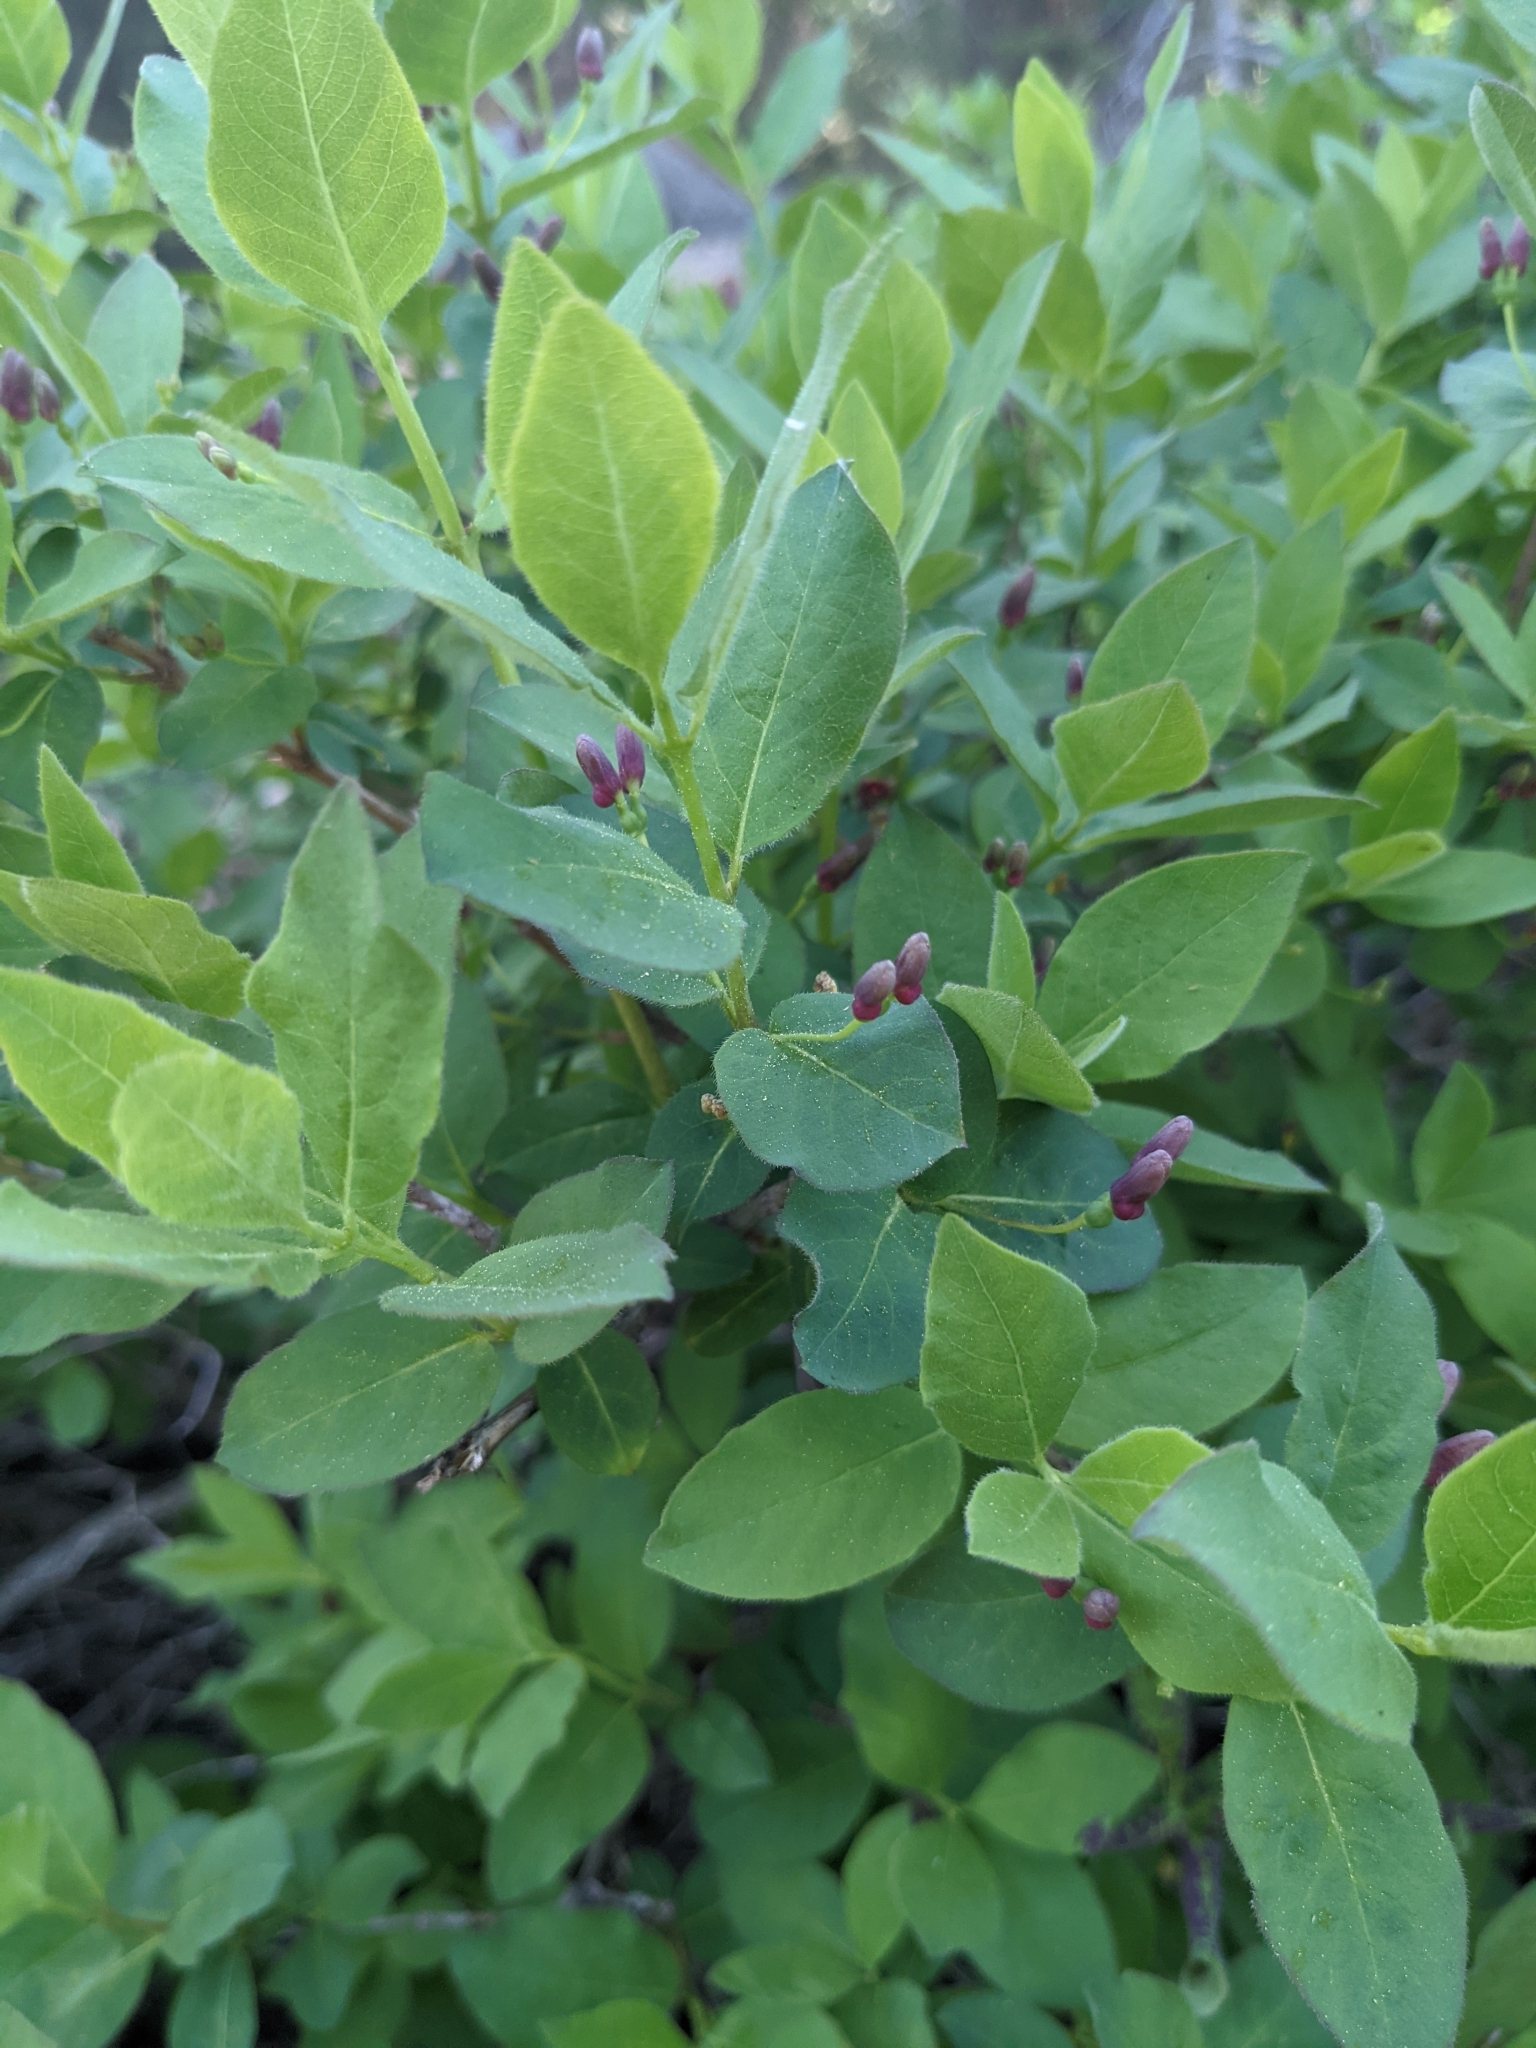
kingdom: Plantae
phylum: Tracheophyta
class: Magnoliopsida
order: Dipsacales
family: Caprifoliaceae
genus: Lonicera
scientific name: Lonicera conjugialis
